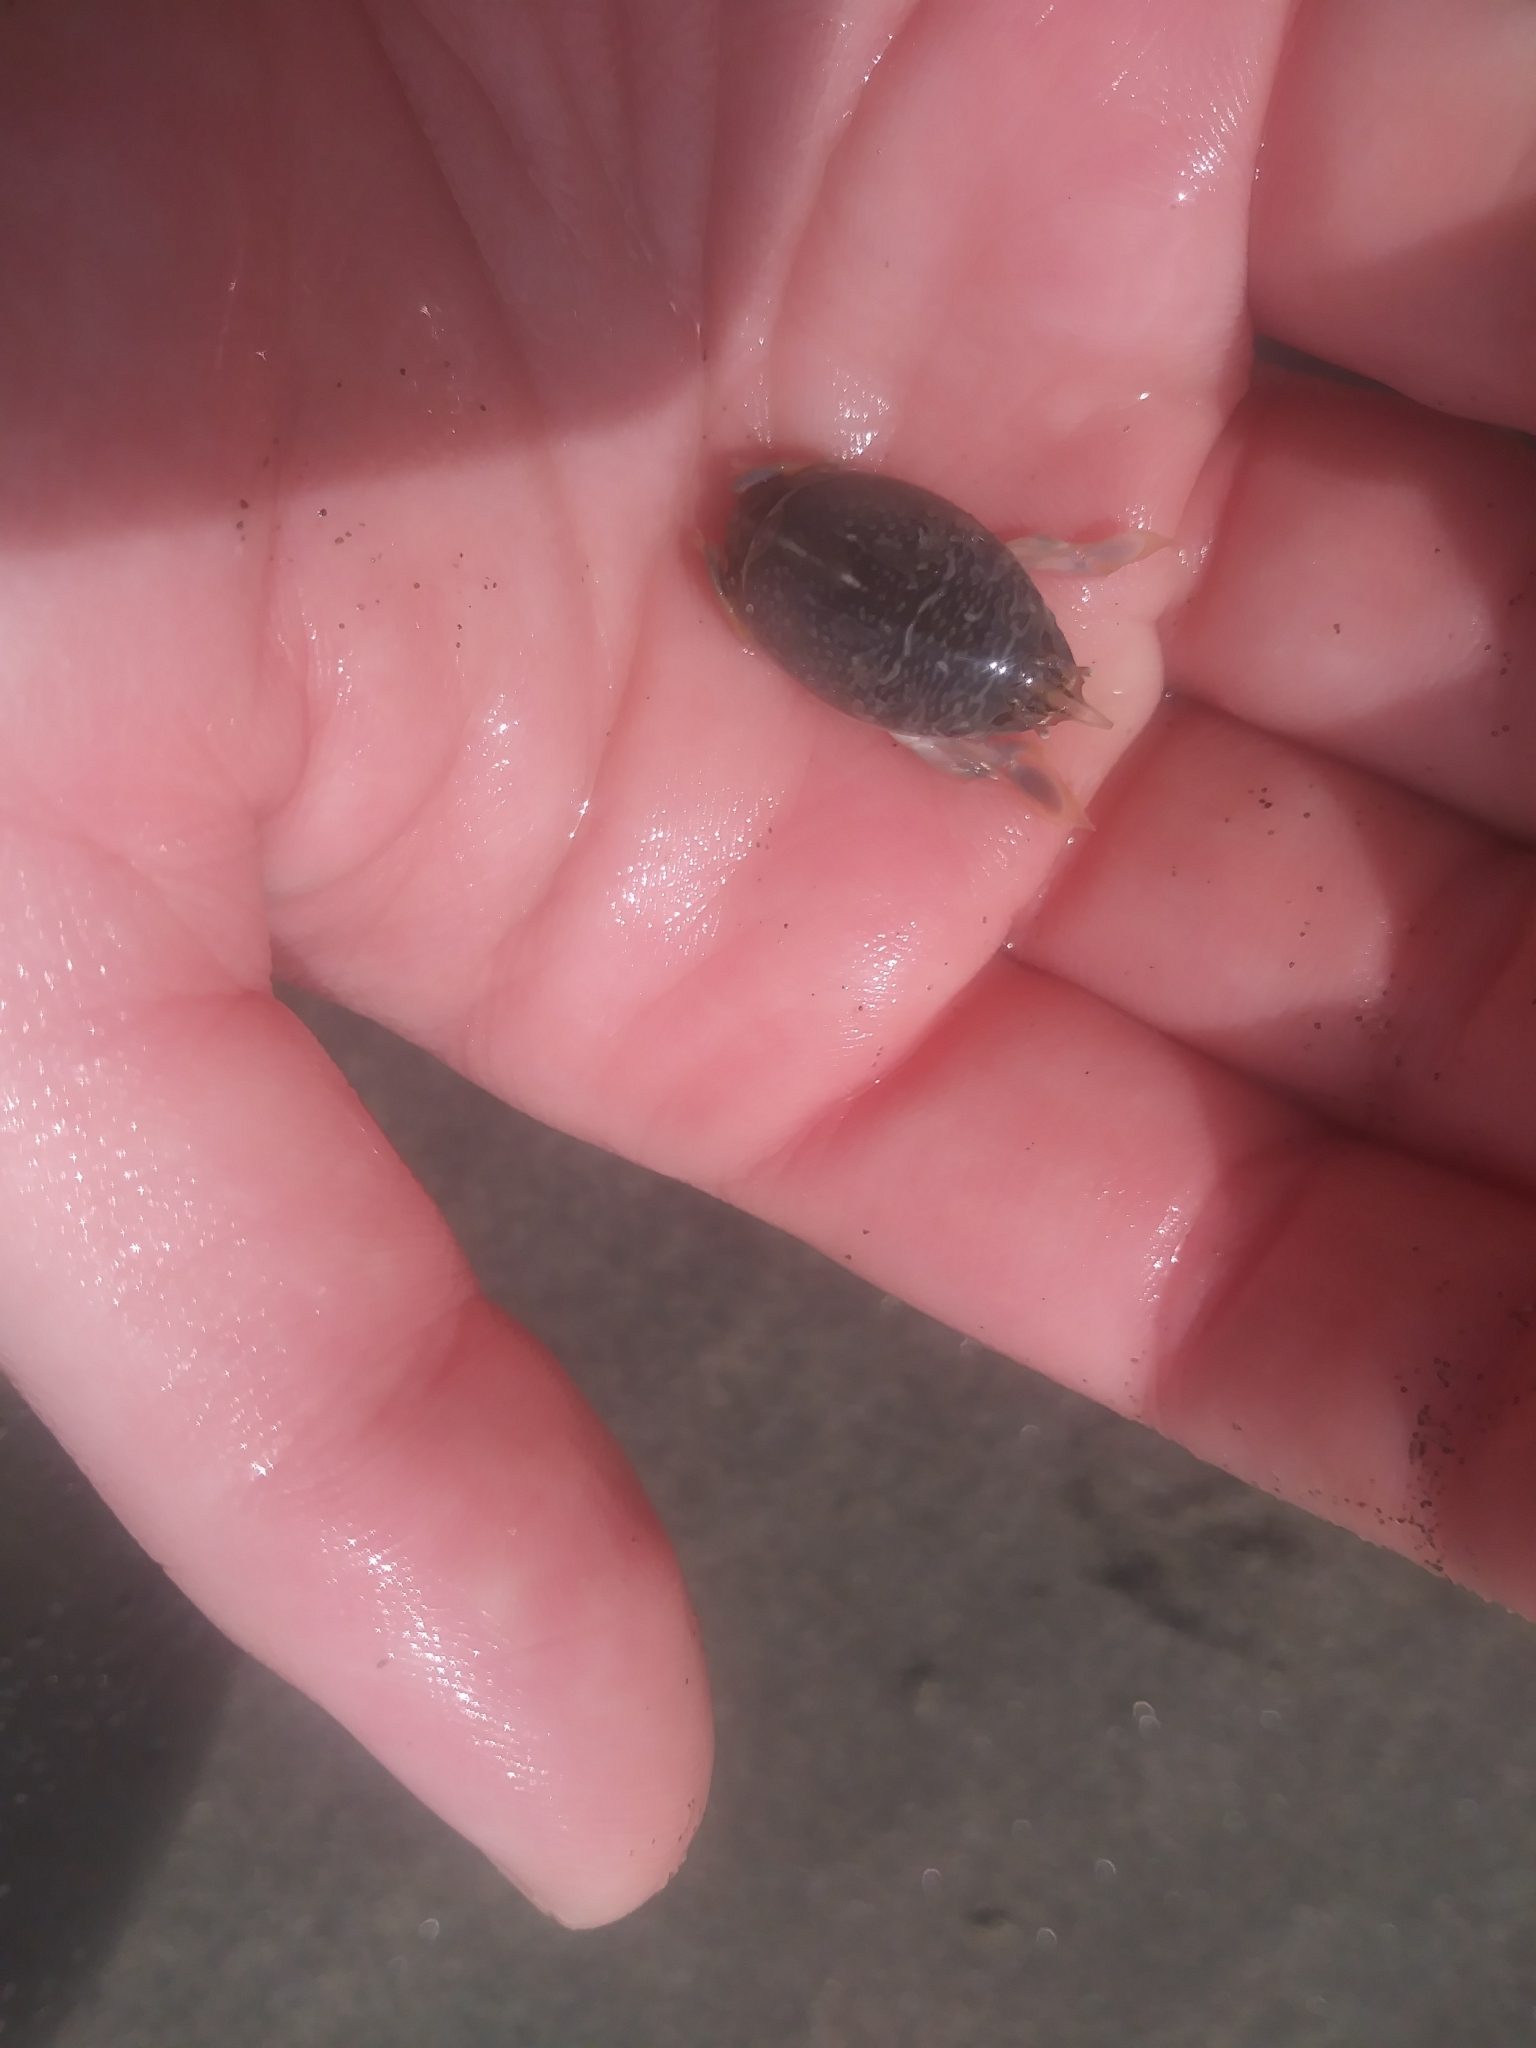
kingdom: Animalia
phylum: Arthropoda
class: Malacostraca
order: Decapoda
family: Hippidae
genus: Emerita
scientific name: Emerita analoga
